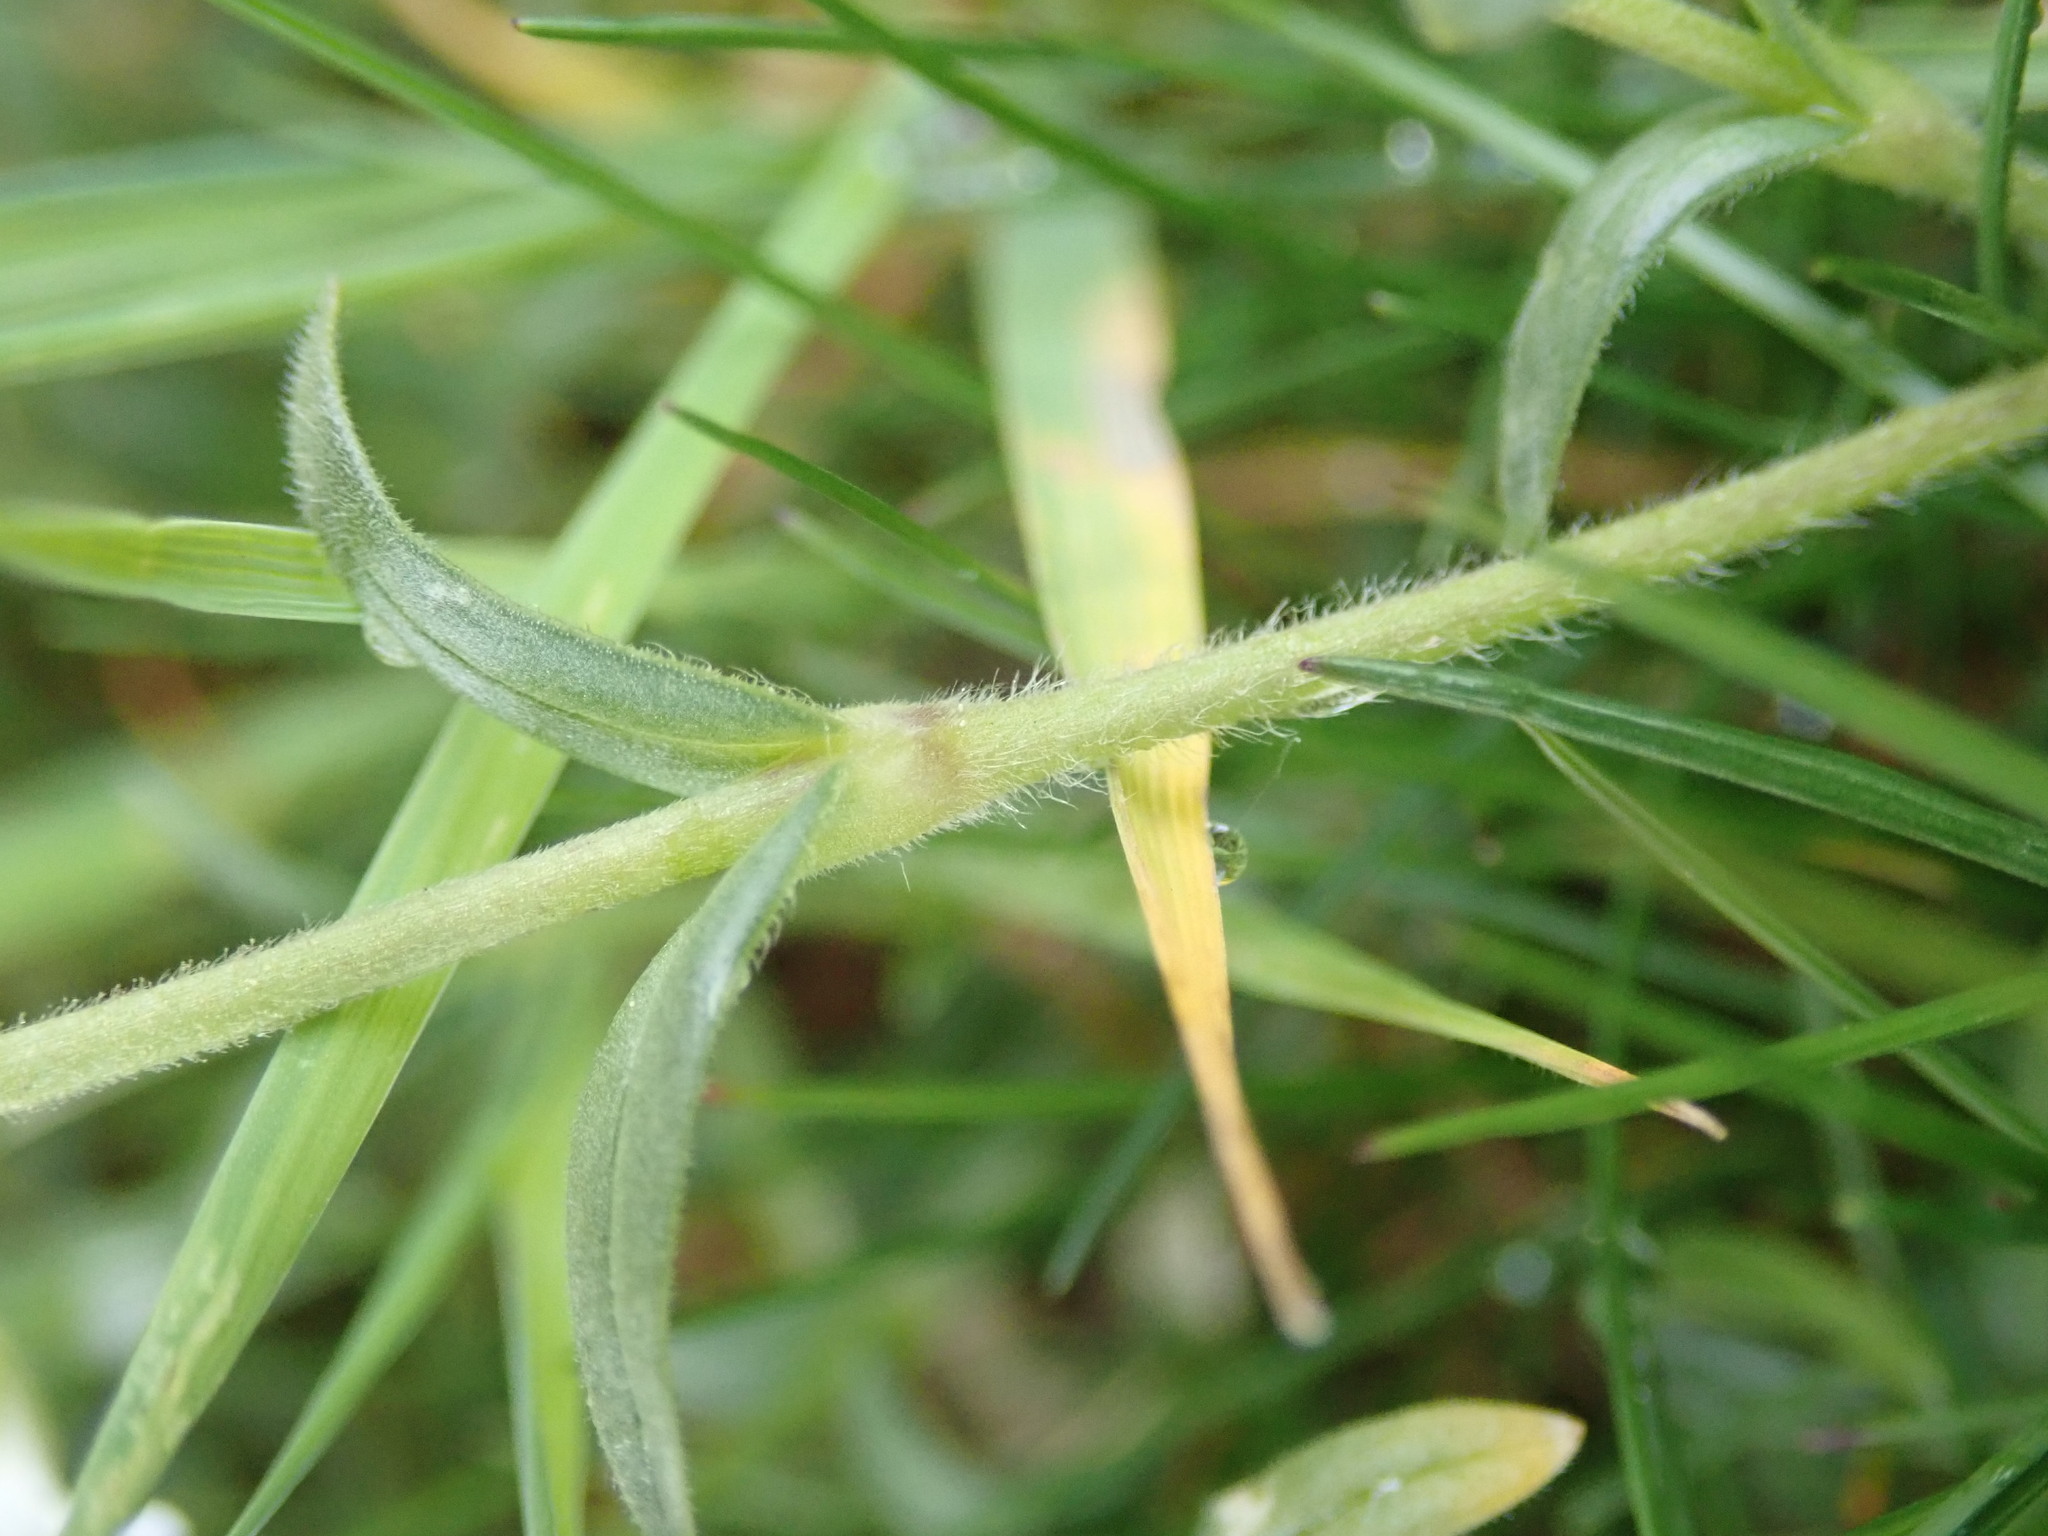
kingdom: Plantae
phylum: Tracheophyta
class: Magnoliopsida
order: Caryophyllales
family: Caryophyllaceae
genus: Cerastium
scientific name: Cerastium arvense
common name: Field mouse-ear
